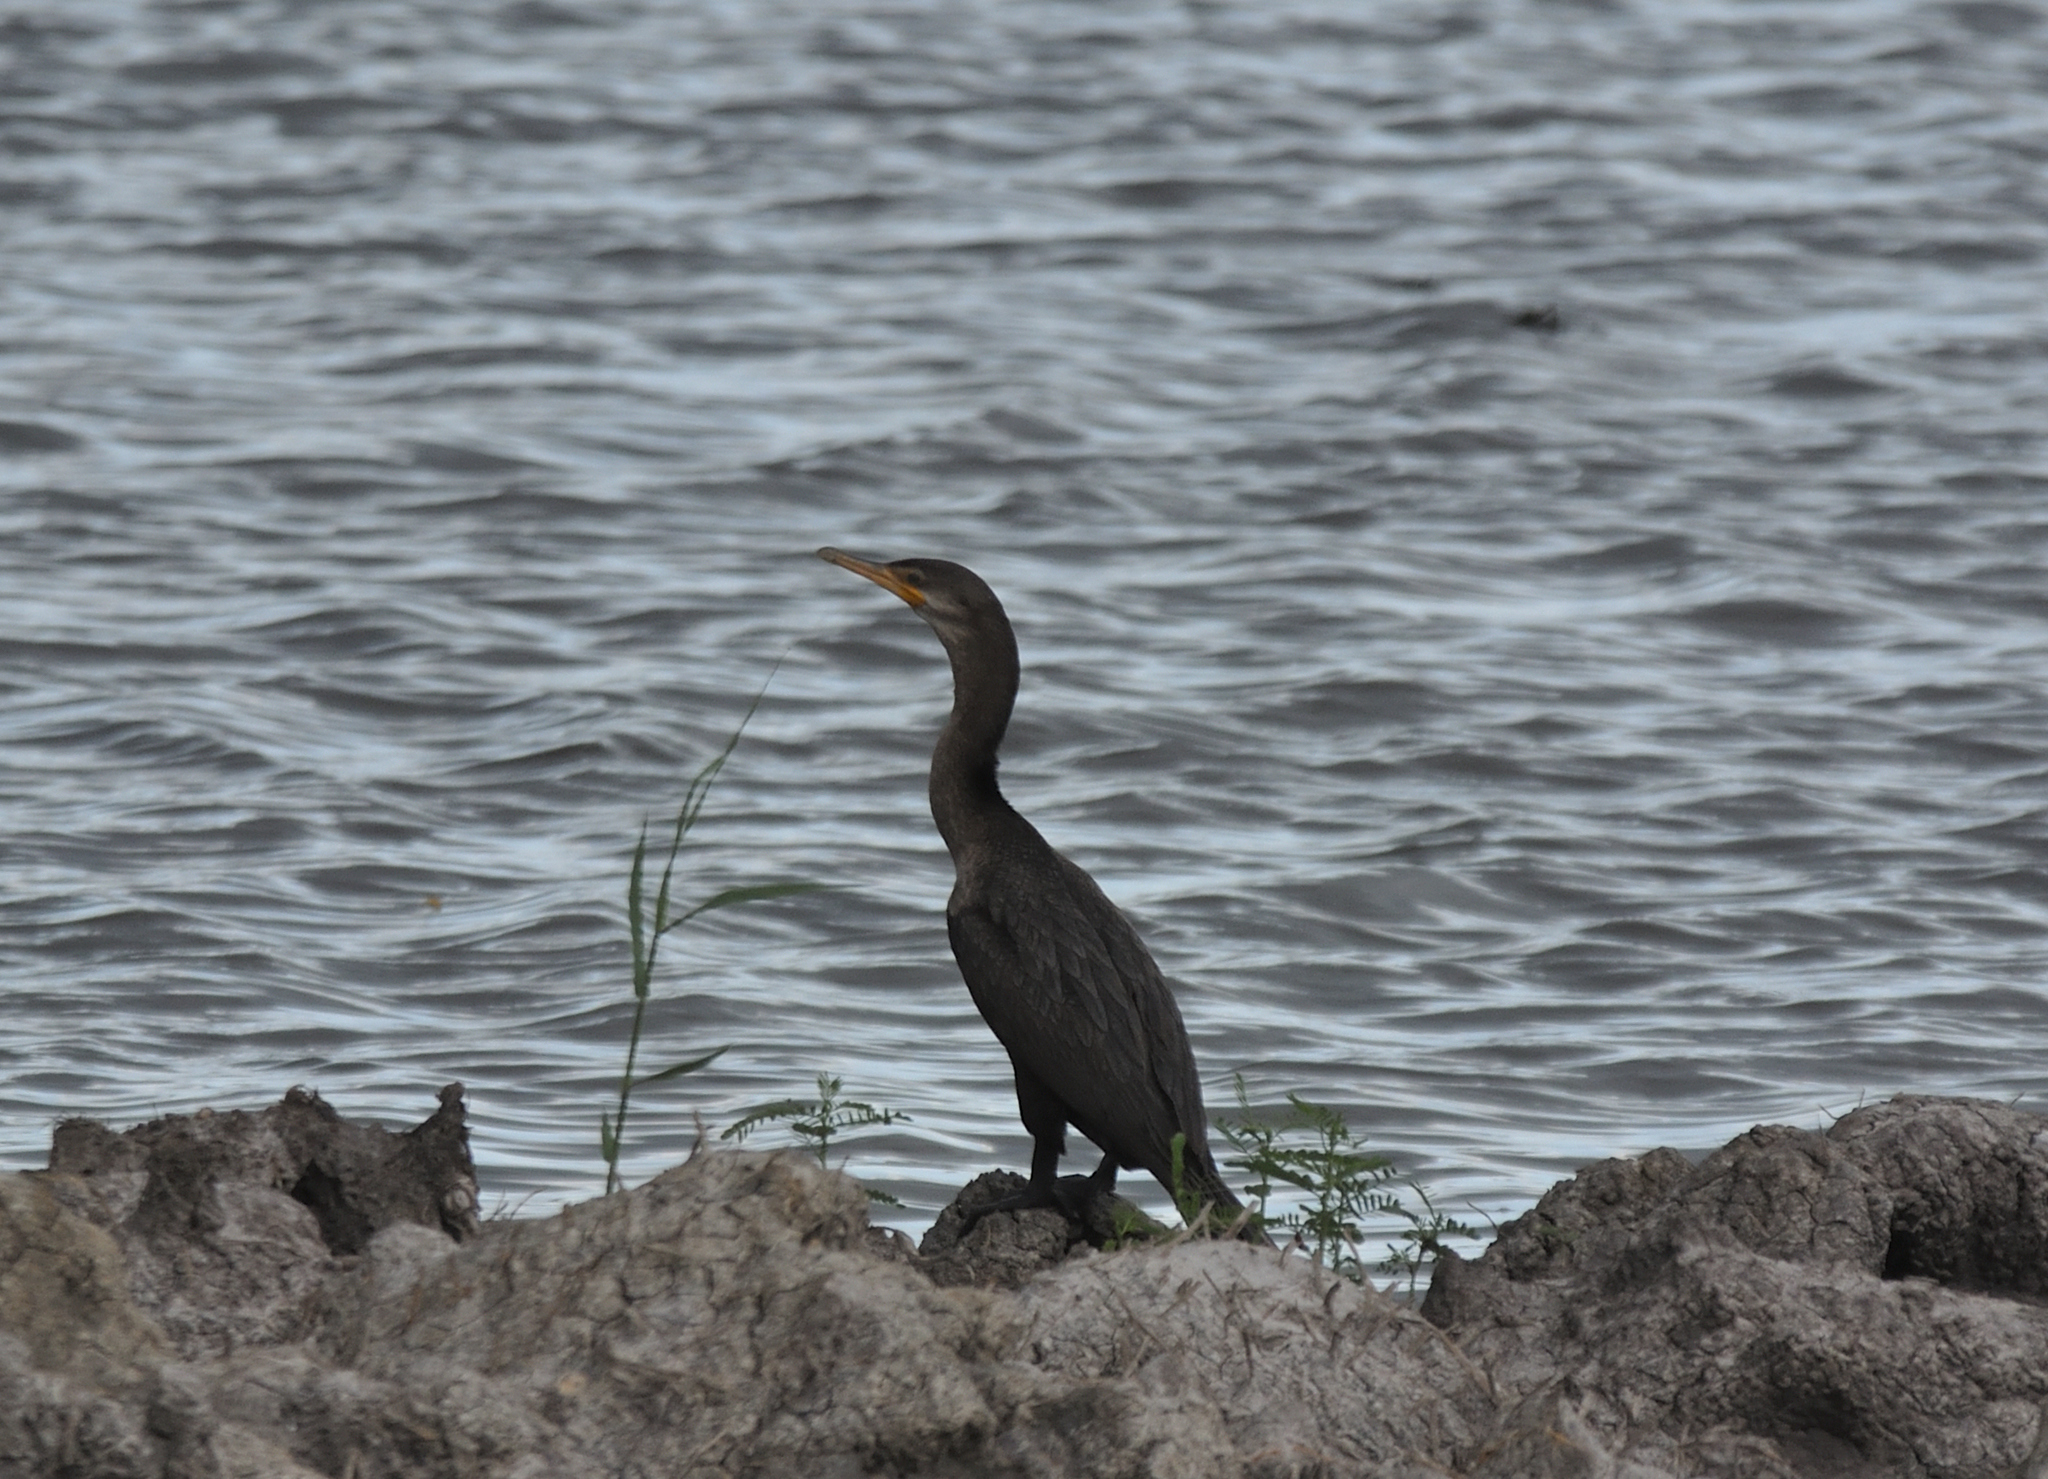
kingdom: Animalia
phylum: Chordata
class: Aves
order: Suliformes
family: Phalacrocoracidae
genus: Phalacrocorax
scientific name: Phalacrocorax brasilianus
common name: Neotropic cormorant
